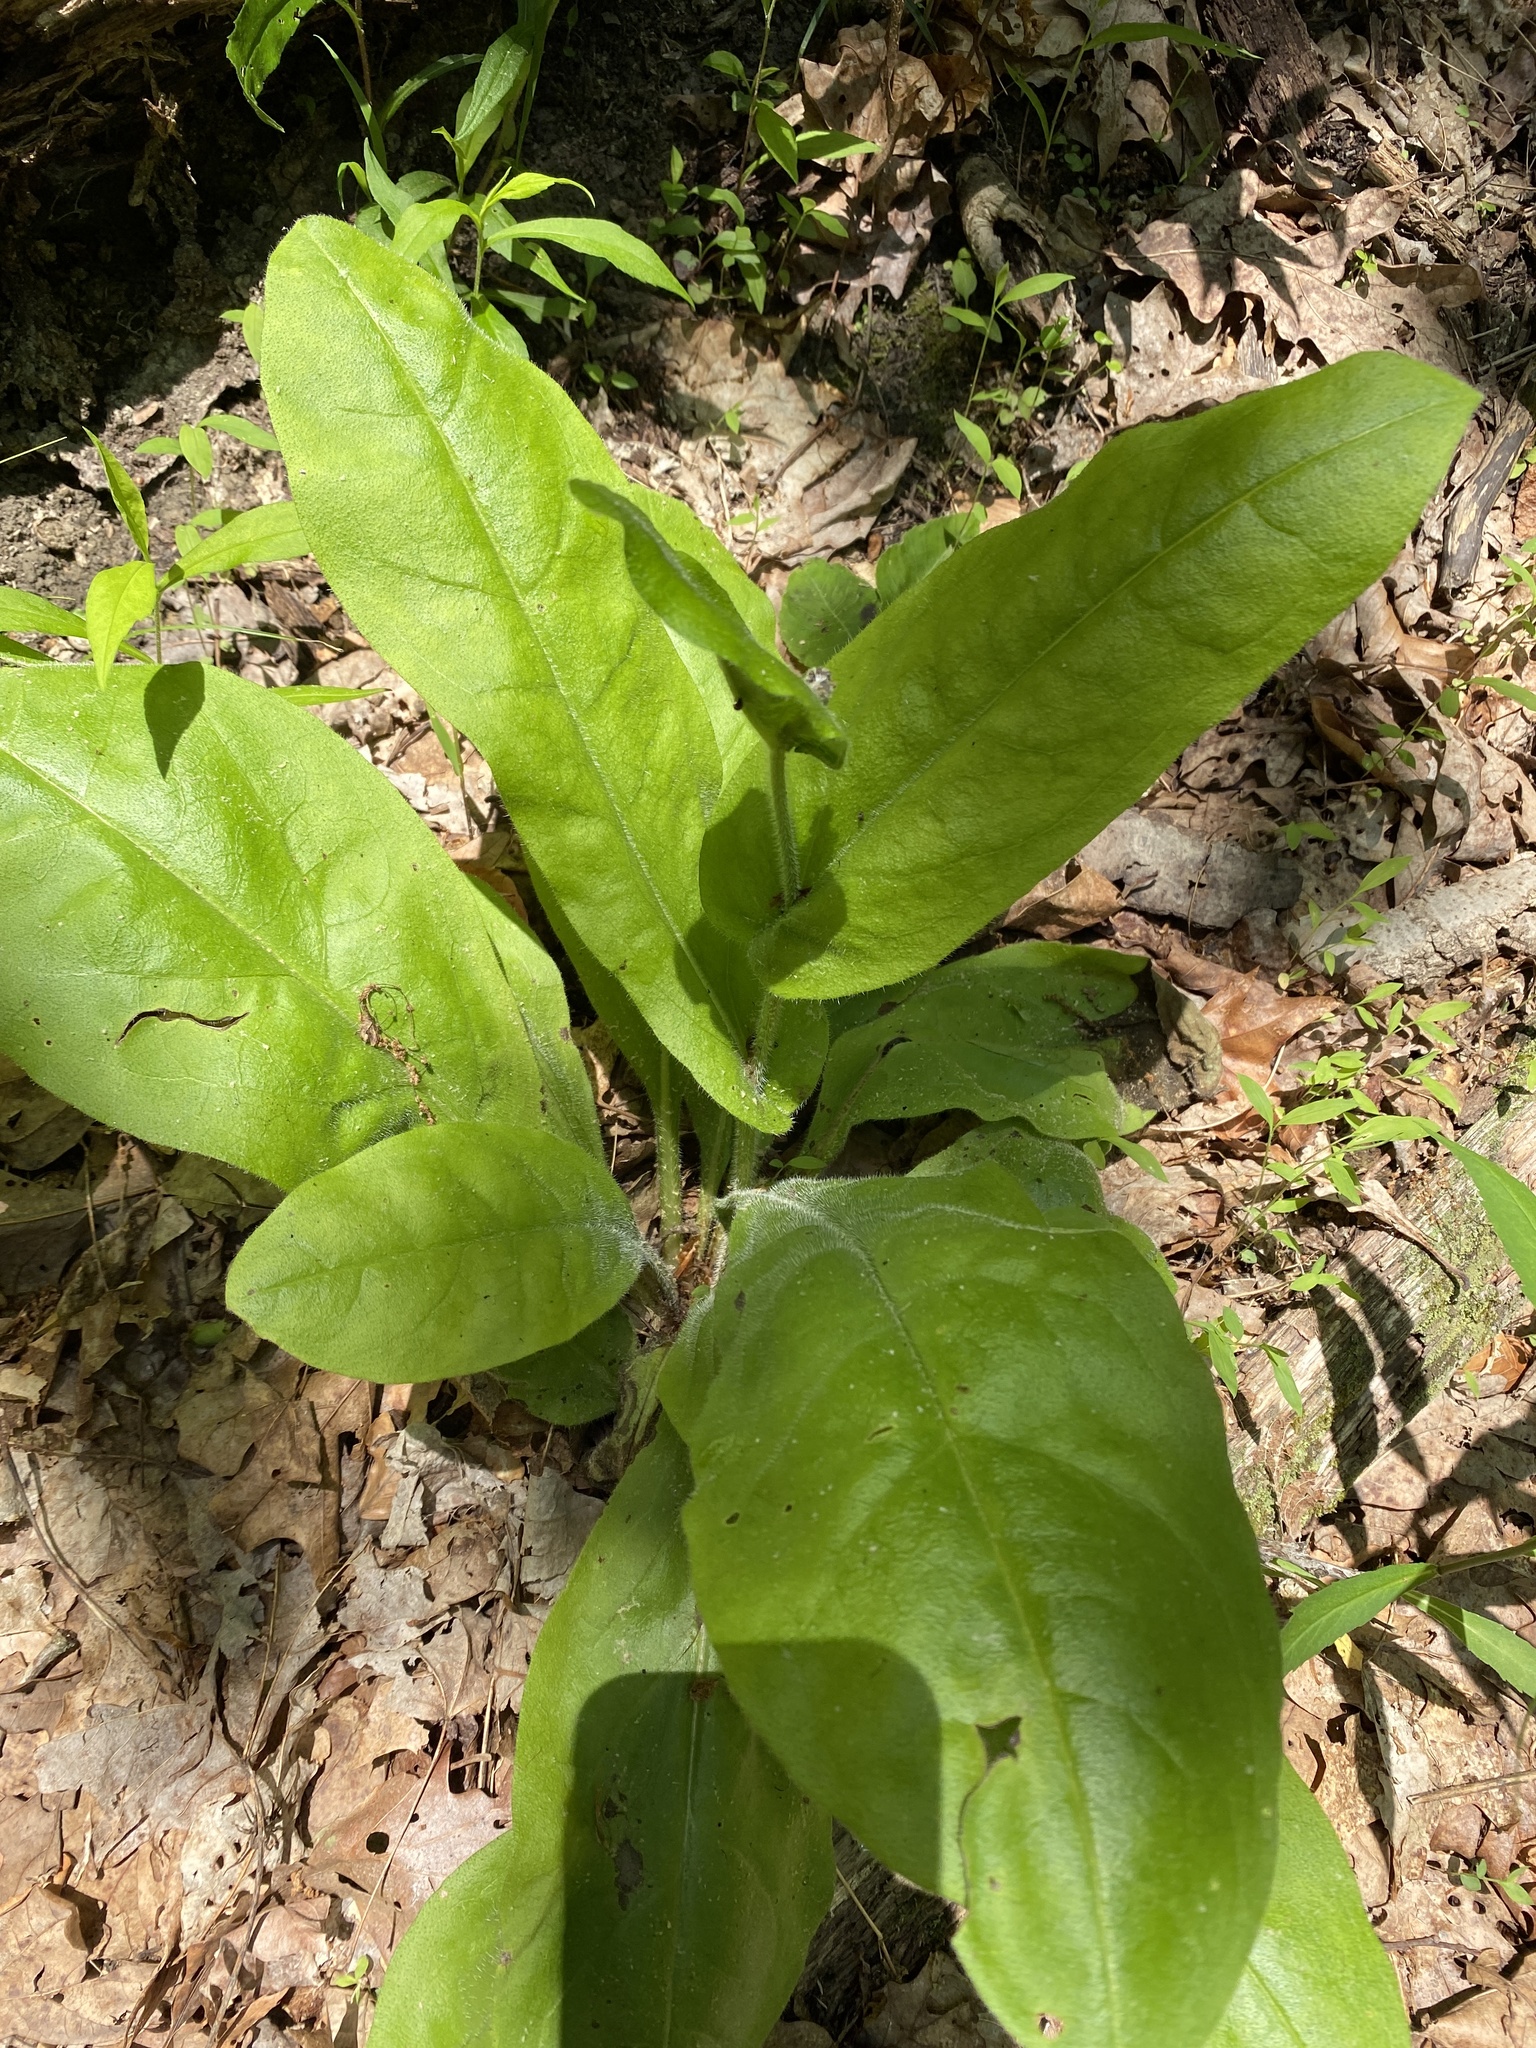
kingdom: Plantae
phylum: Tracheophyta
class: Magnoliopsida
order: Boraginales
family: Boraginaceae
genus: Andersonglossum
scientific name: Andersonglossum virginianum
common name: Wild comfrey
